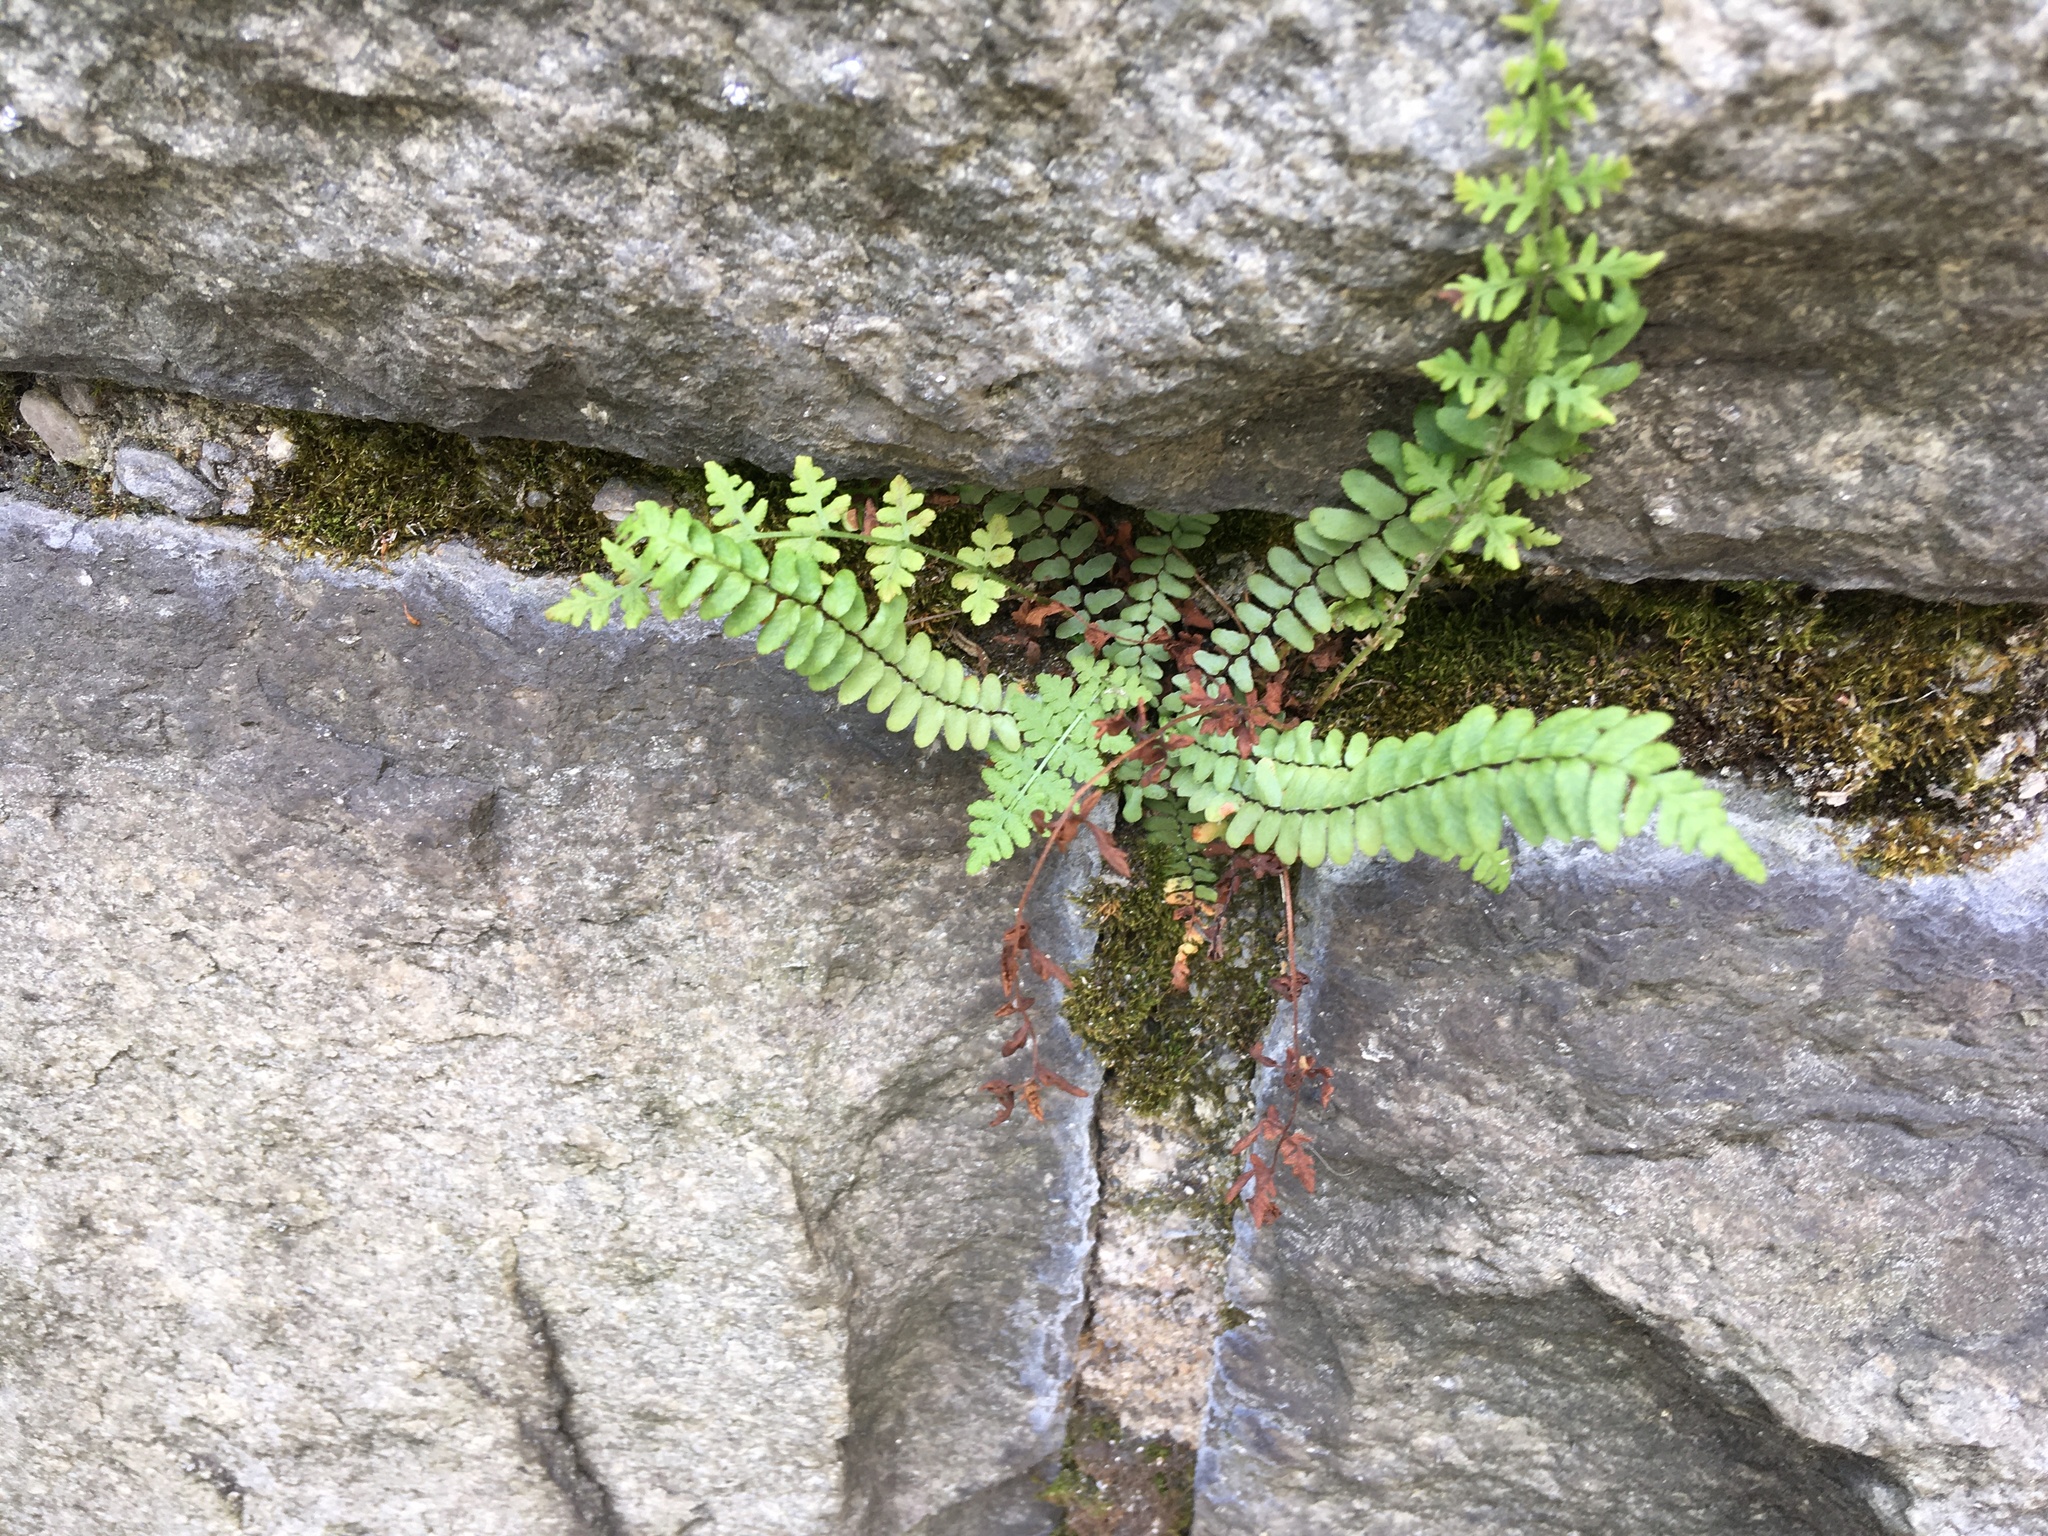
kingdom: Plantae
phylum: Tracheophyta
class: Polypodiopsida
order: Polypodiales
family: Aspleniaceae
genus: Asplenium
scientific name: Asplenium platyneuron
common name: Ebony spleenwort
